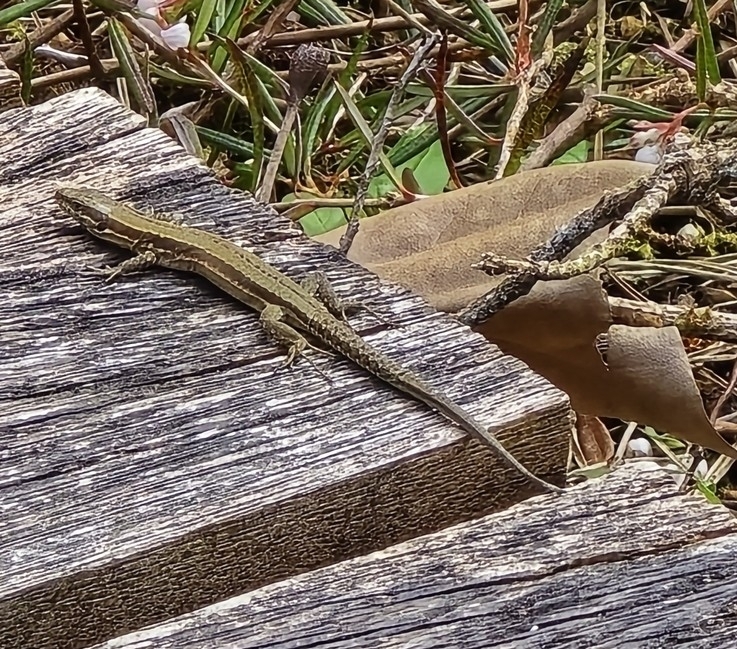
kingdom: Animalia
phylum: Chordata
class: Squamata
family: Lacertidae
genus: Podarcis
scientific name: Podarcis muralis
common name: Common wall lizard
